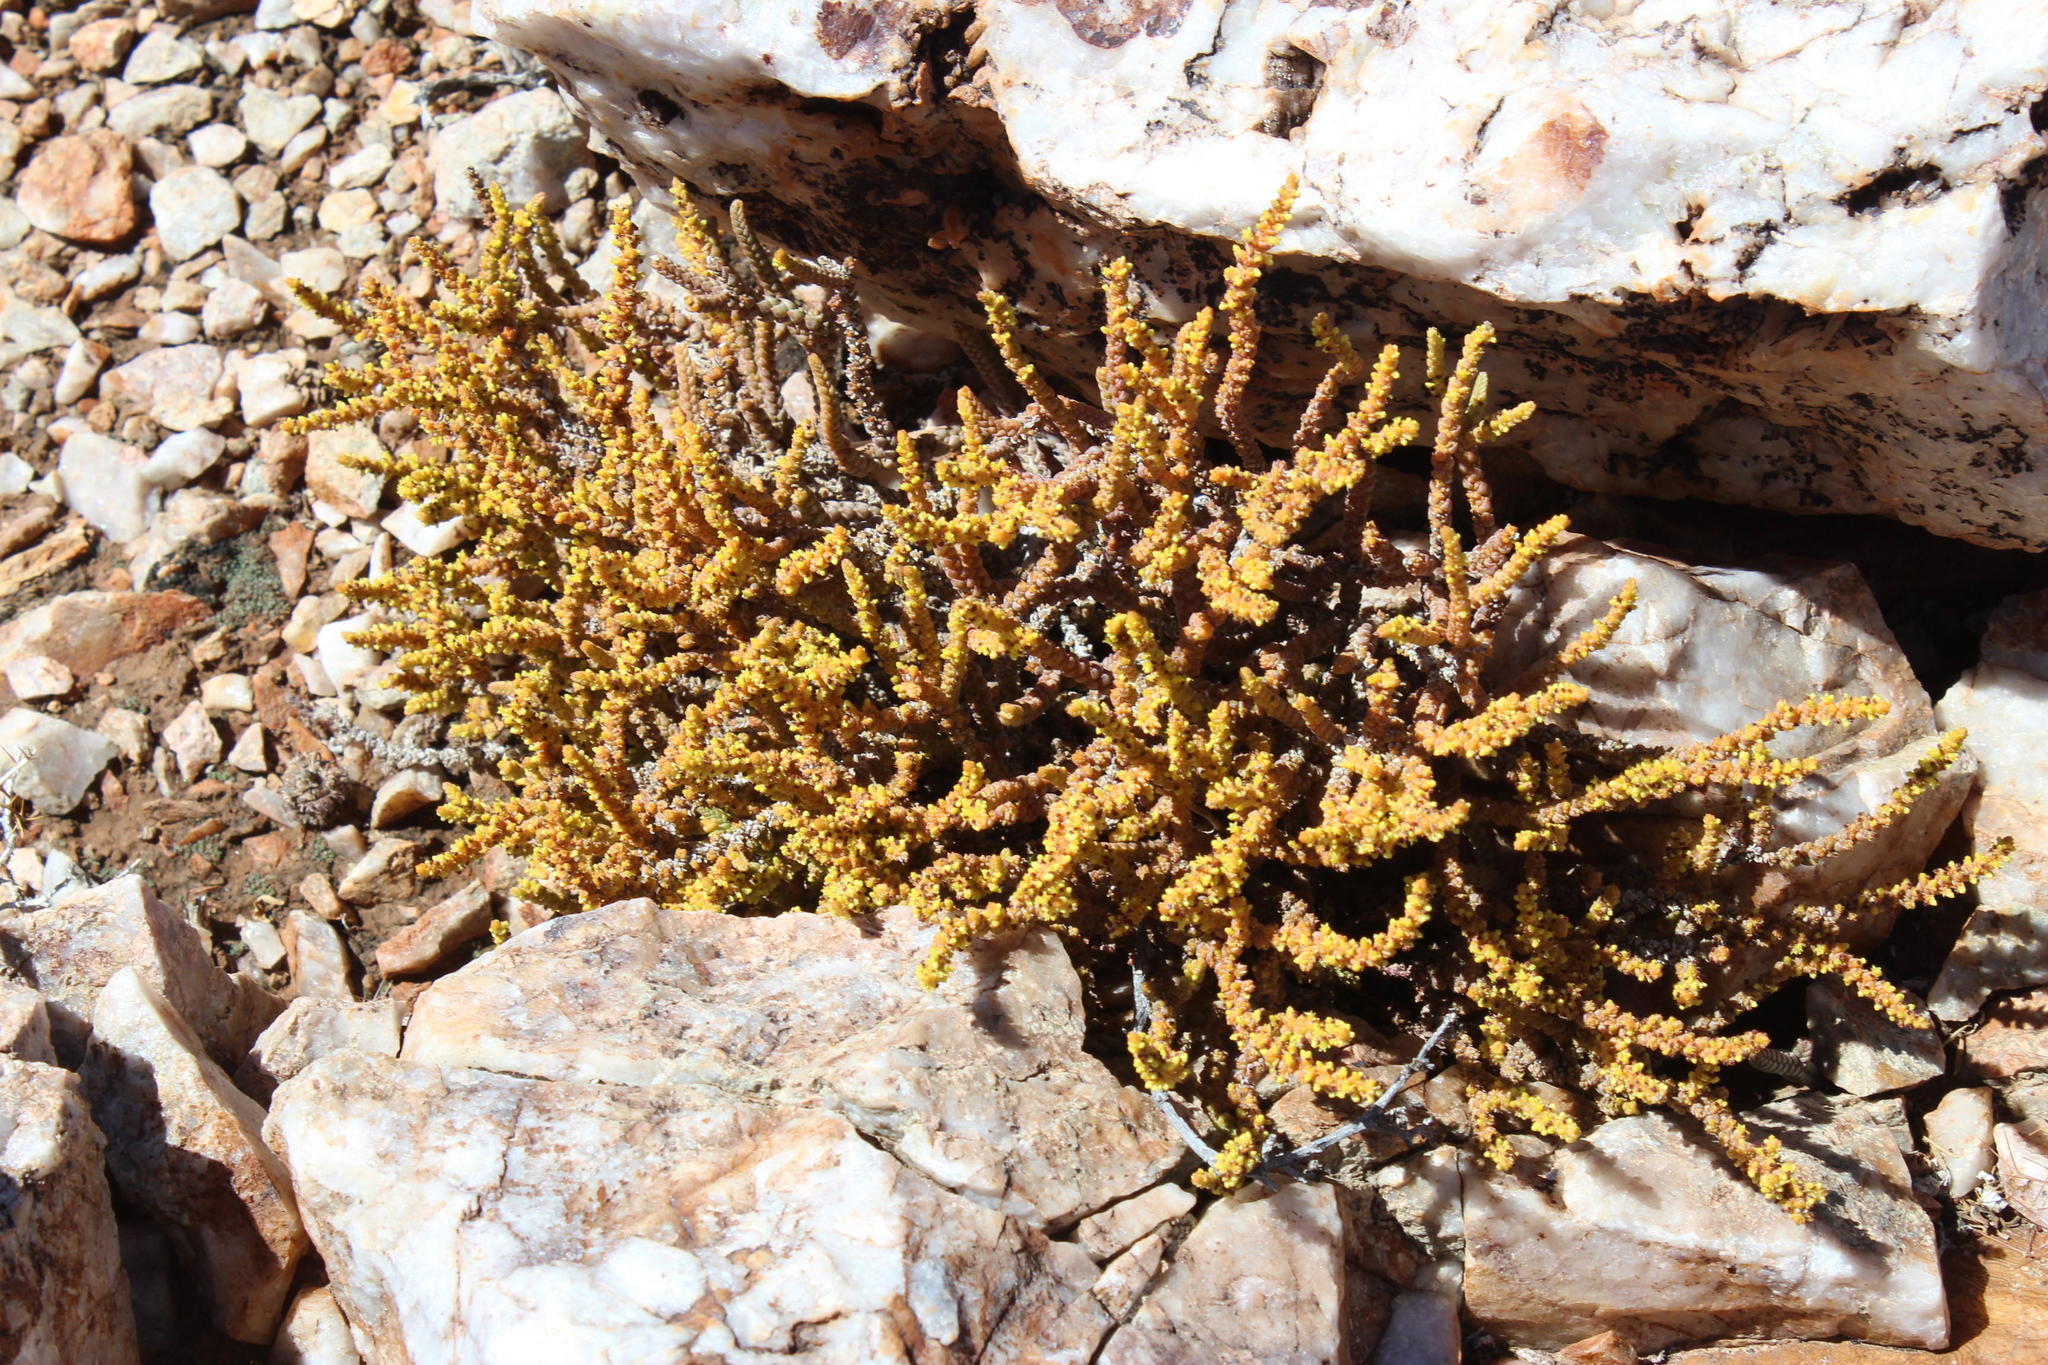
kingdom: Plantae
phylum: Tracheophyta
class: Magnoliopsida
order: Saxifragales
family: Crassulaceae
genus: Crassula
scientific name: Crassula muscosa
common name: Toy-cypress
